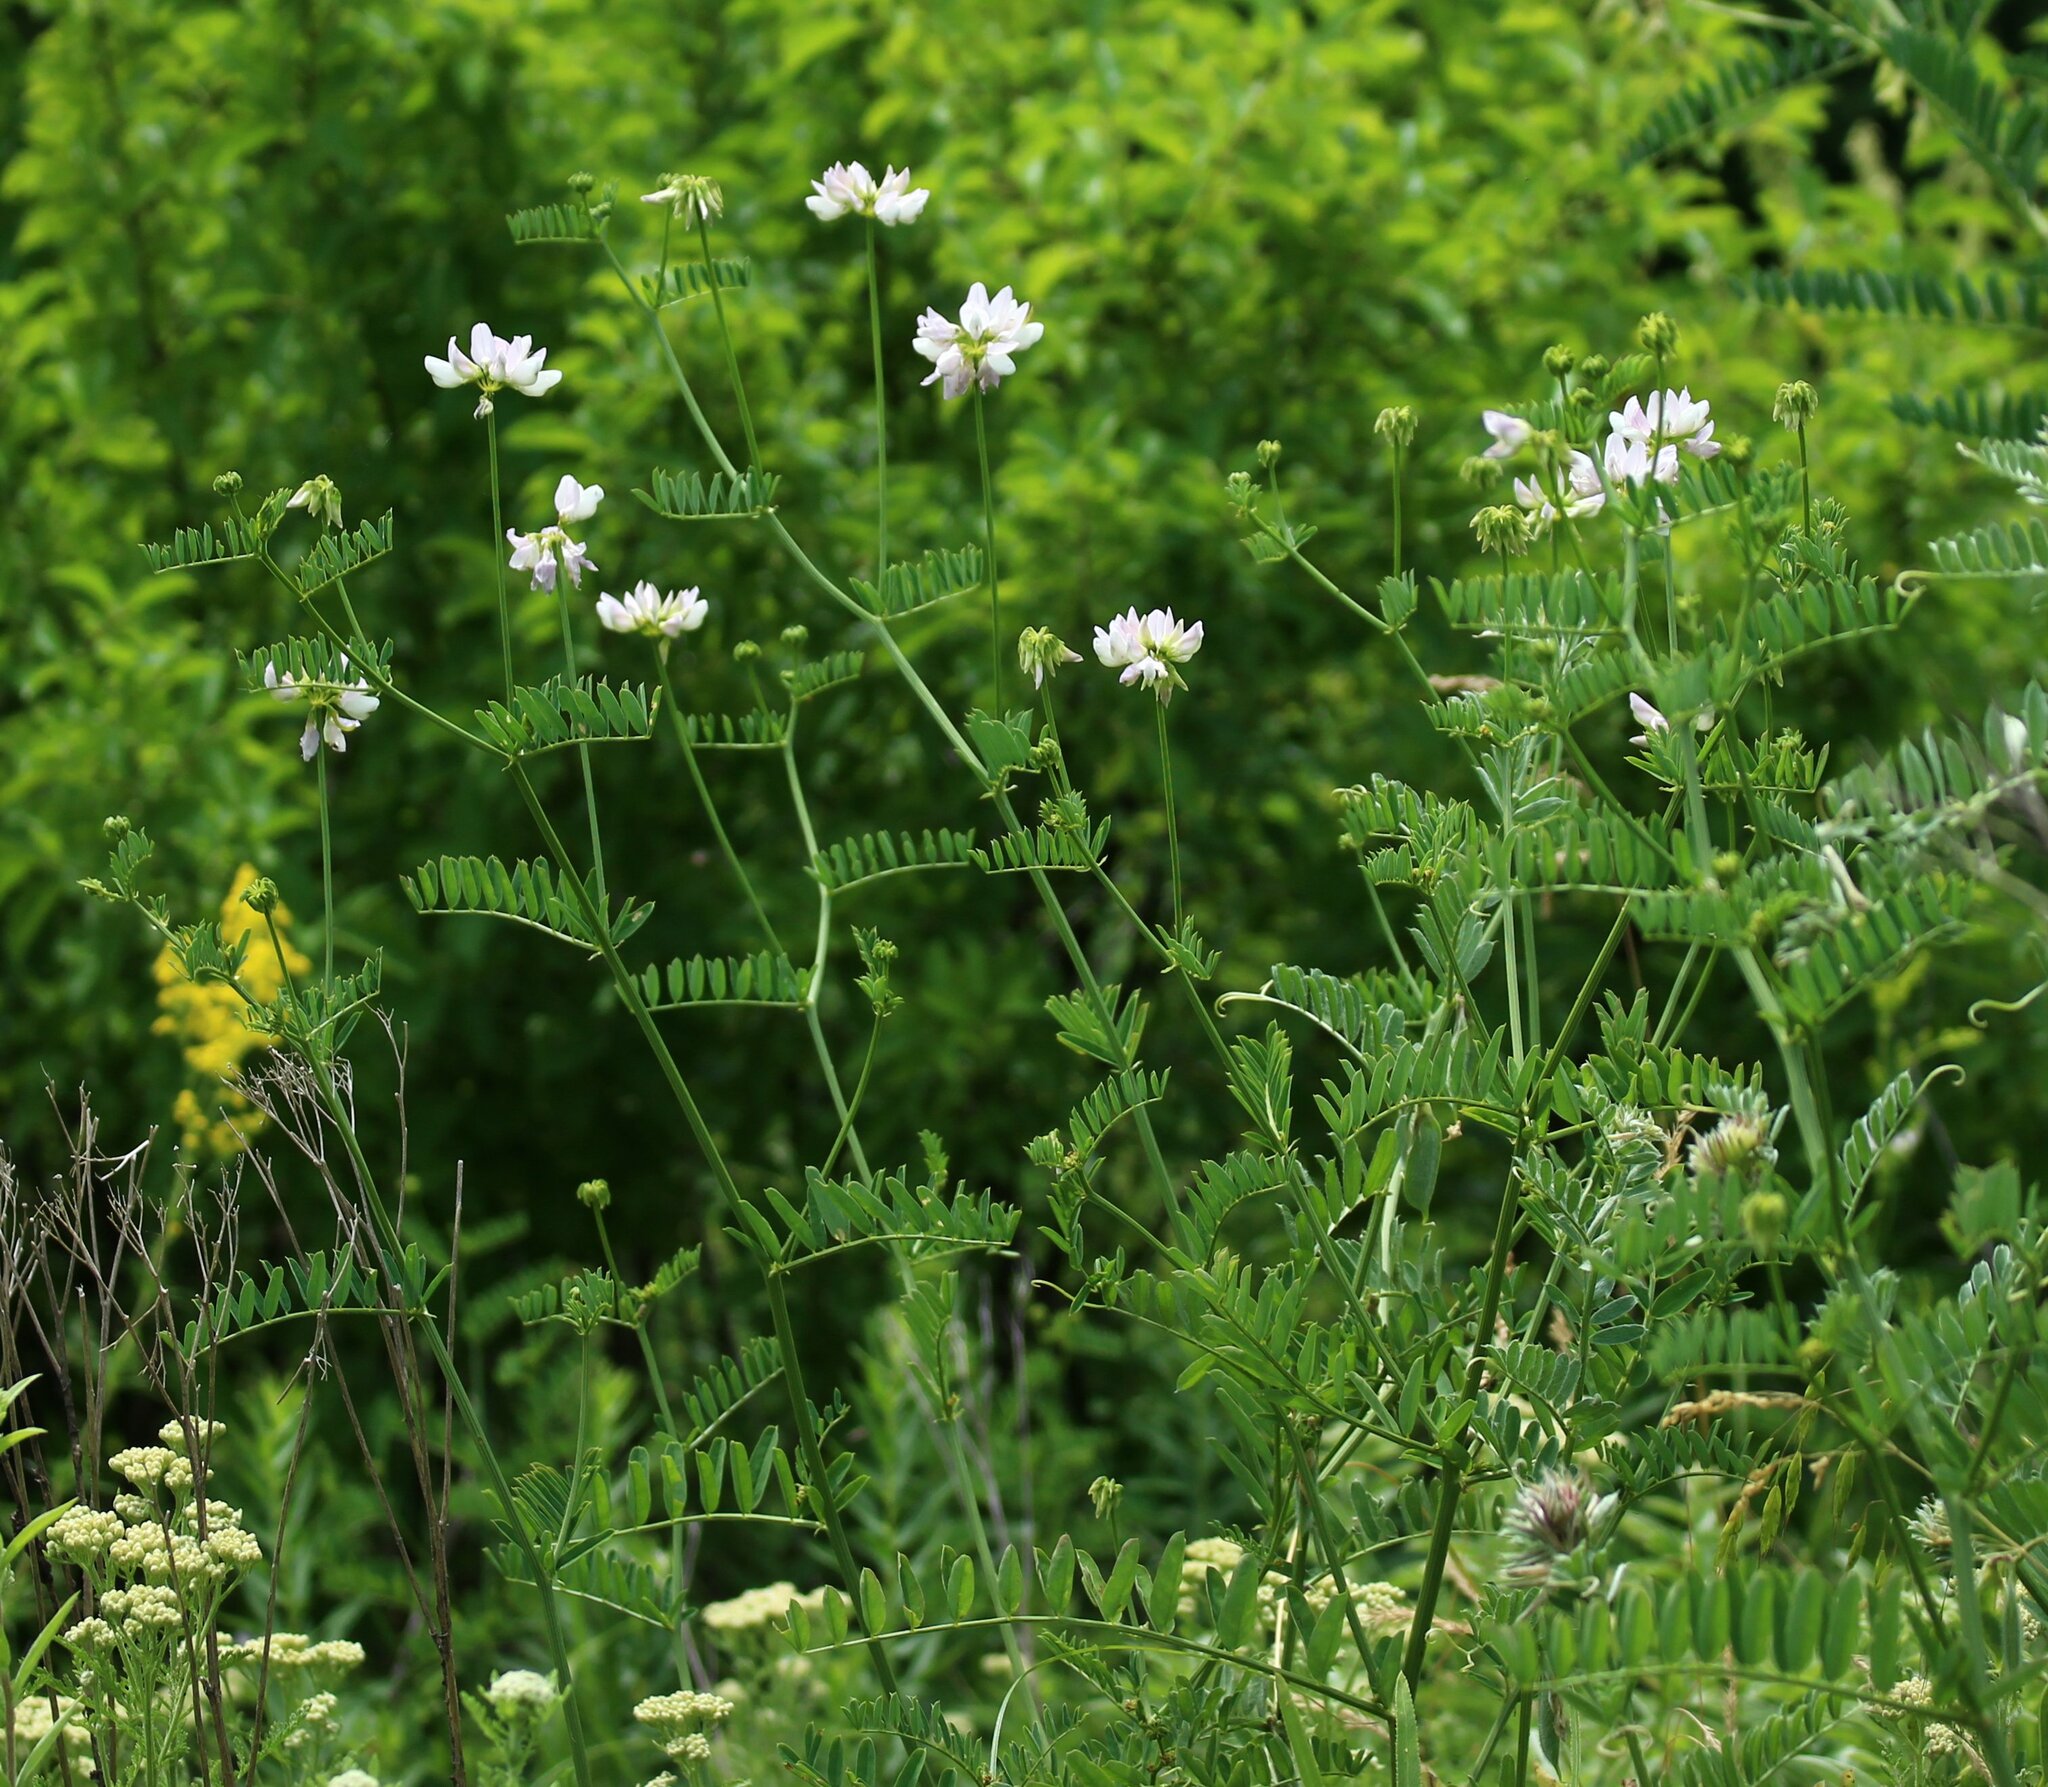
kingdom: Plantae
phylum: Tracheophyta
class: Magnoliopsida
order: Fabales
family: Fabaceae
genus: Coronilla
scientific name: Coronilla varia
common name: Crownvetch
